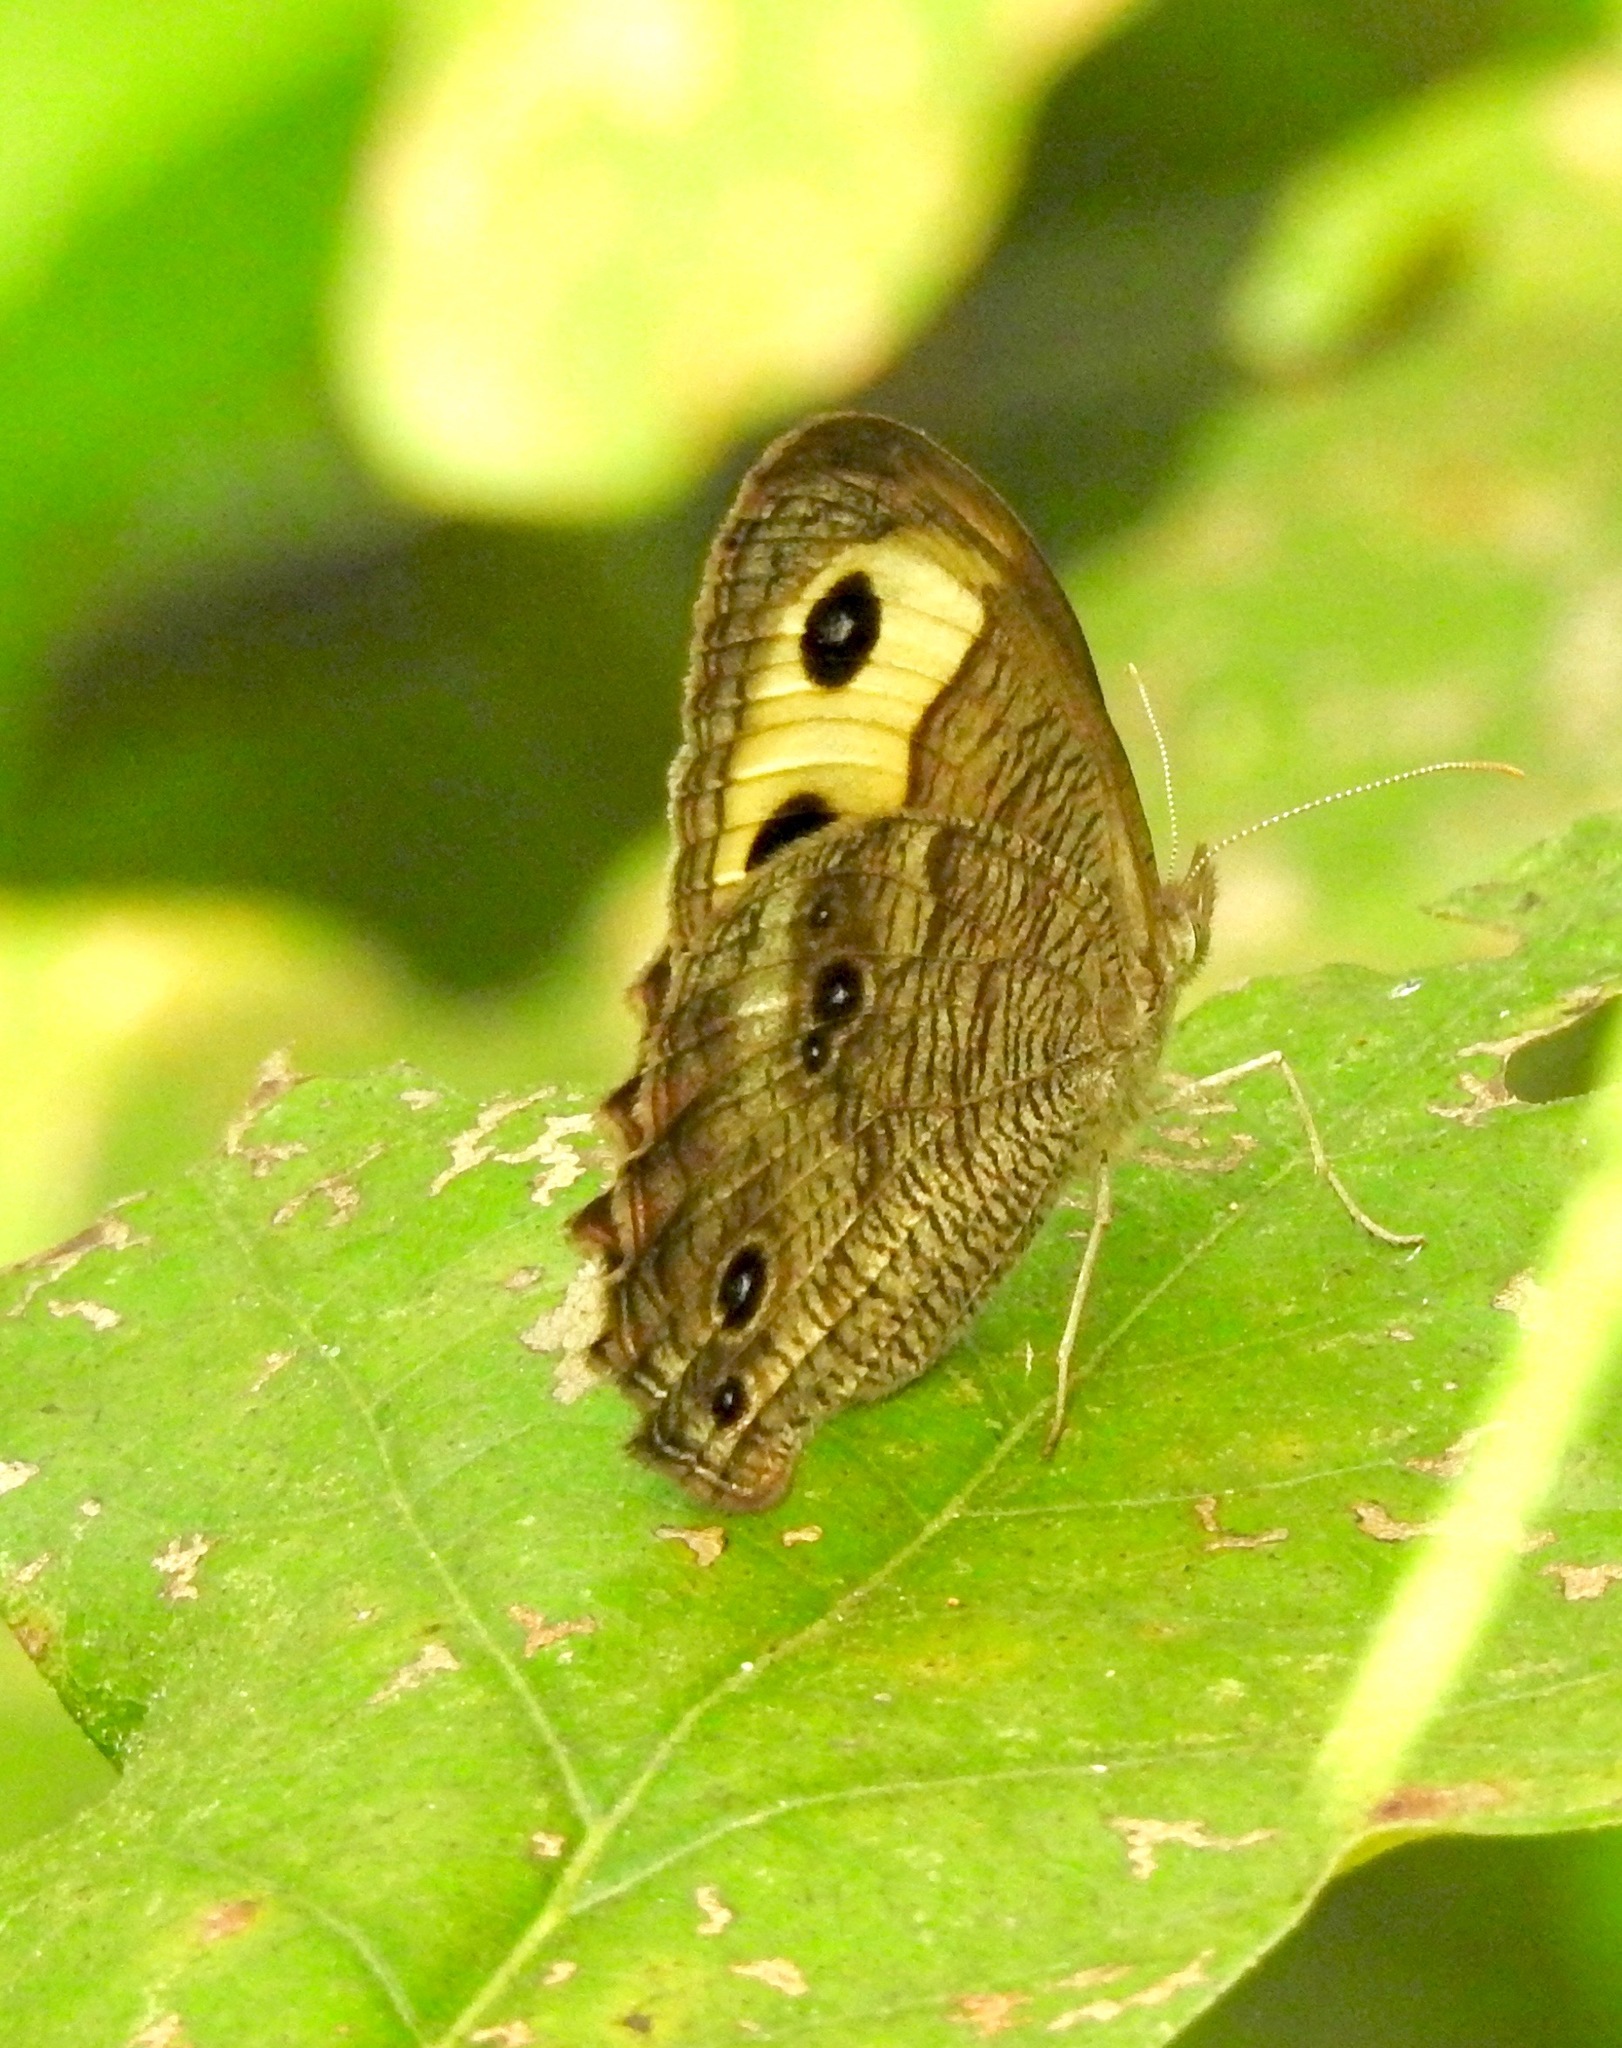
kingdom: Animalia
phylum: Arthropoda
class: Insecta
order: Lepidoptera
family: Nymphalidae
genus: Cercyonis
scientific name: Cercyonis pegala
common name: Common wood-nymph
